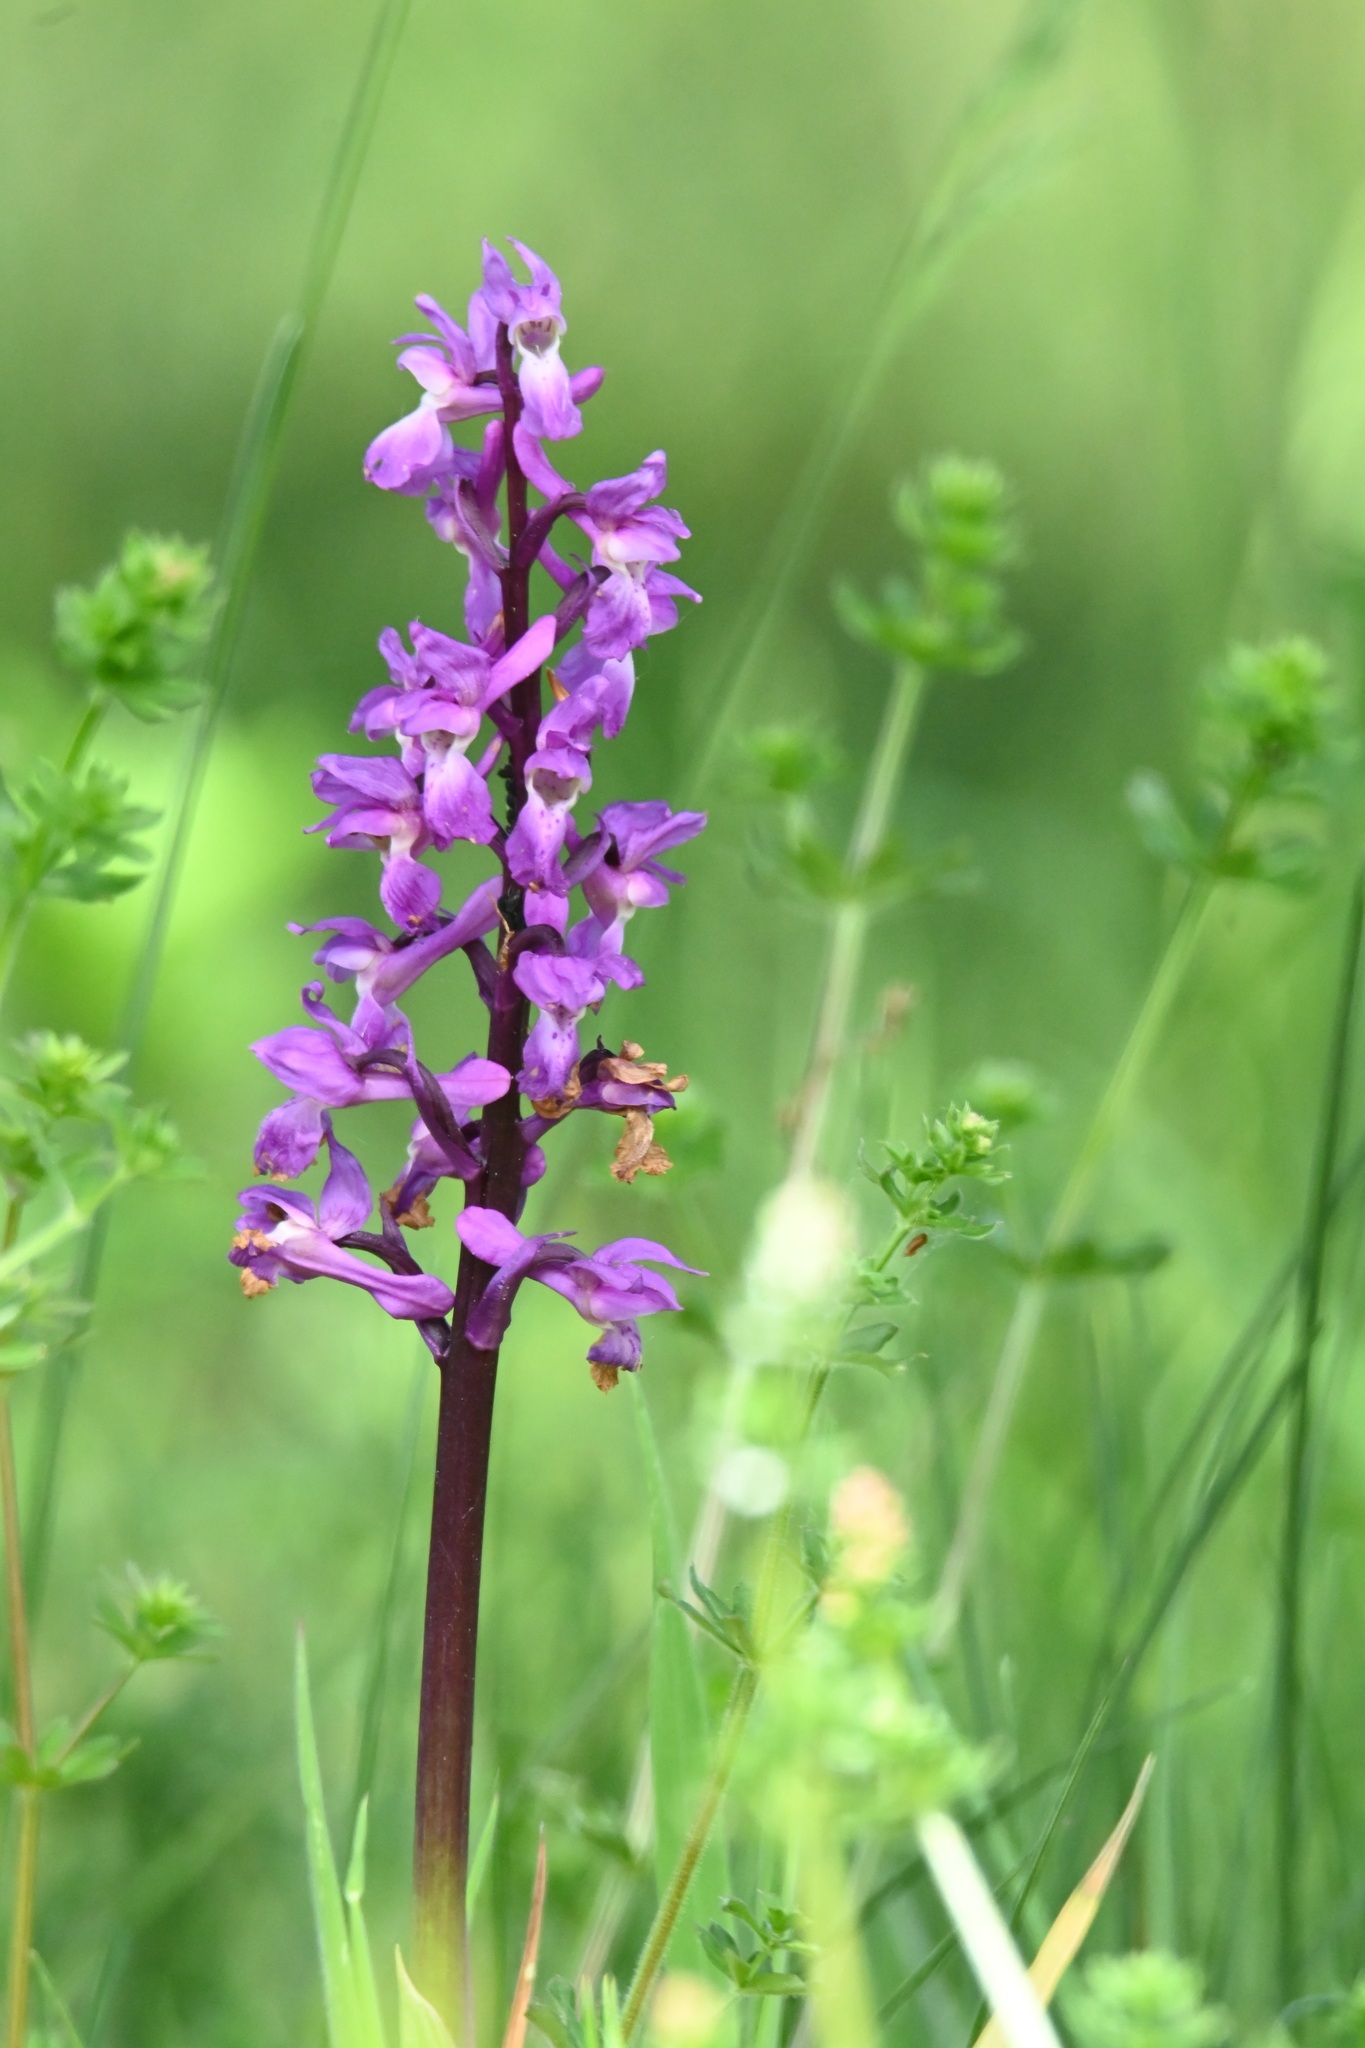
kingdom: Plantae
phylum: Tracheophyta
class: Liliopsida
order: Asparagales
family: Orchidaceae
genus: Orchis
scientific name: Orchis mascula
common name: Early-purple orchid
